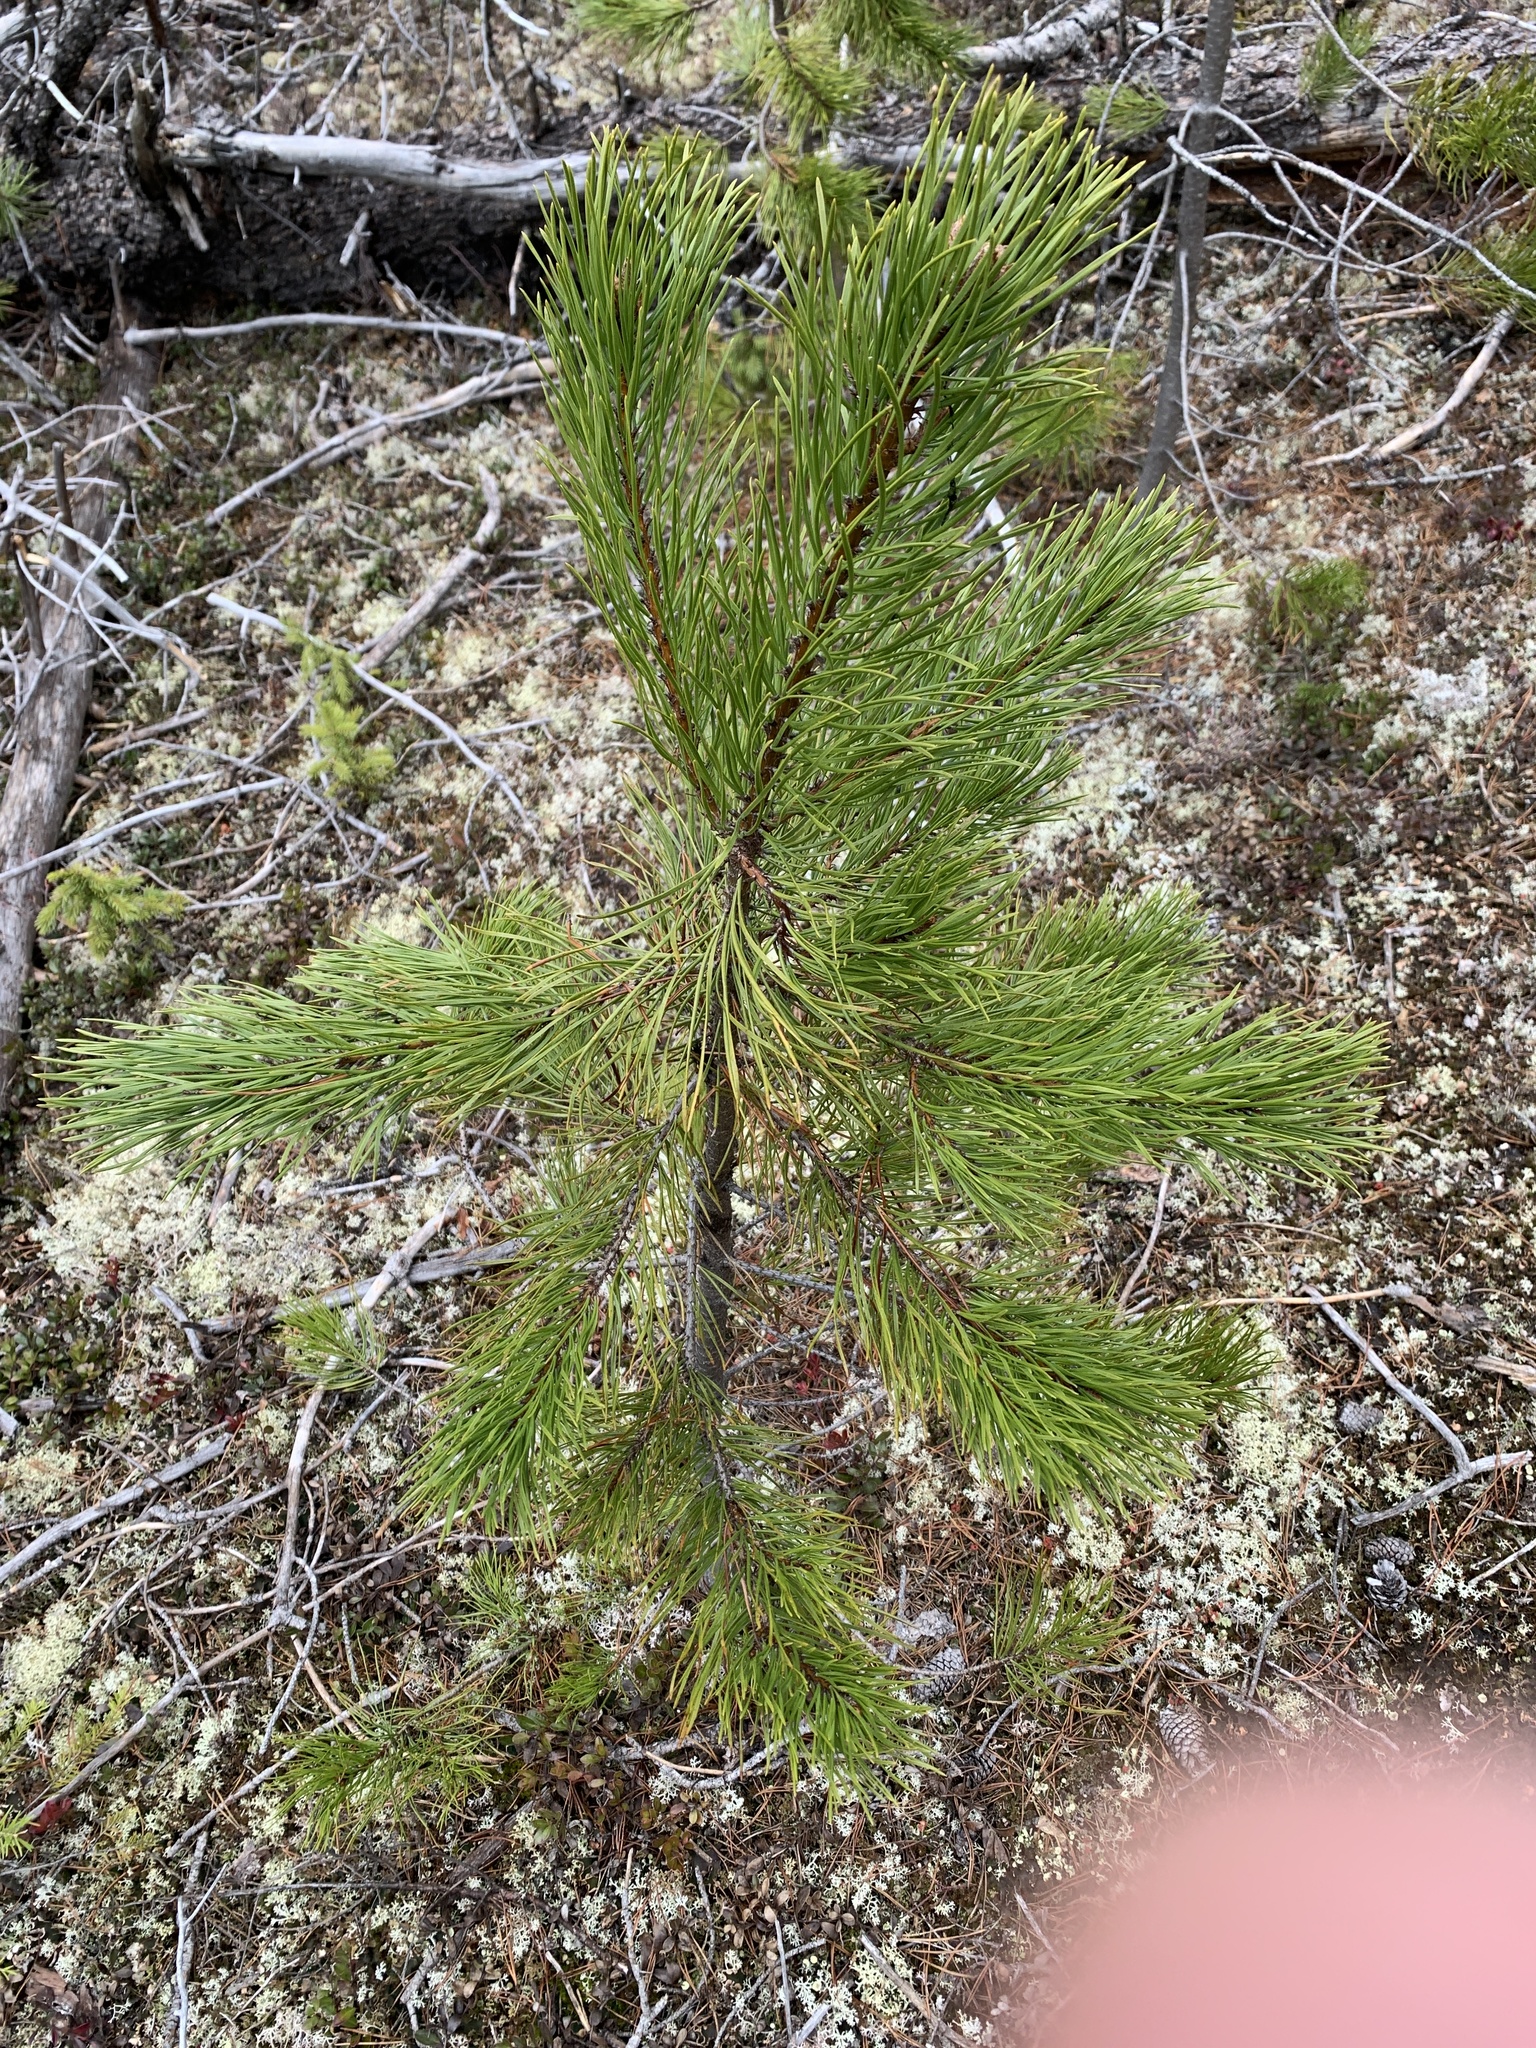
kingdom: Plantae
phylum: Tracheophyta
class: Pinopsida
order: Pinales
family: Pinaceae
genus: Pinus
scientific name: Pinus contorta
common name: Lodgepole pine
